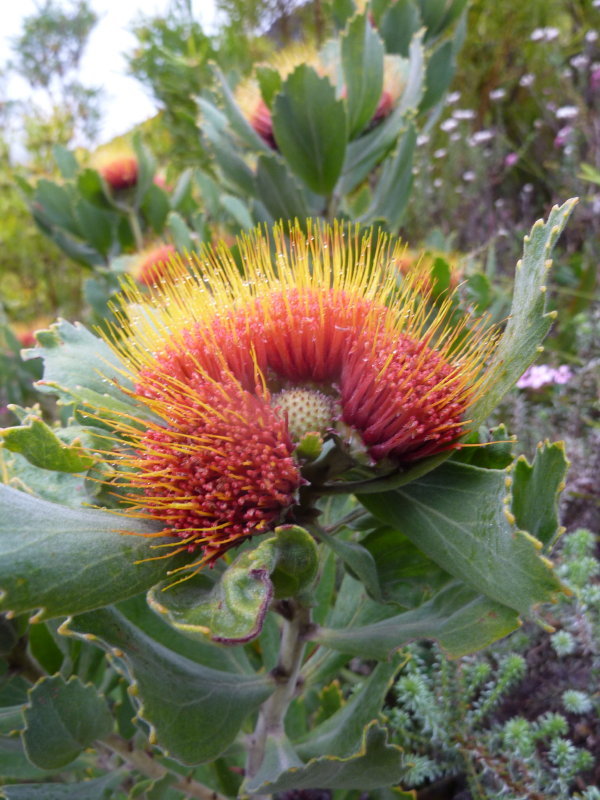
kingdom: Plantae
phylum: Tracheophyta
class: Magnoliopsida
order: Proteales
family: Proteaceae
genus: Leucospermum
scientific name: Leucospermum mundii
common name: Langeberg pincushion
